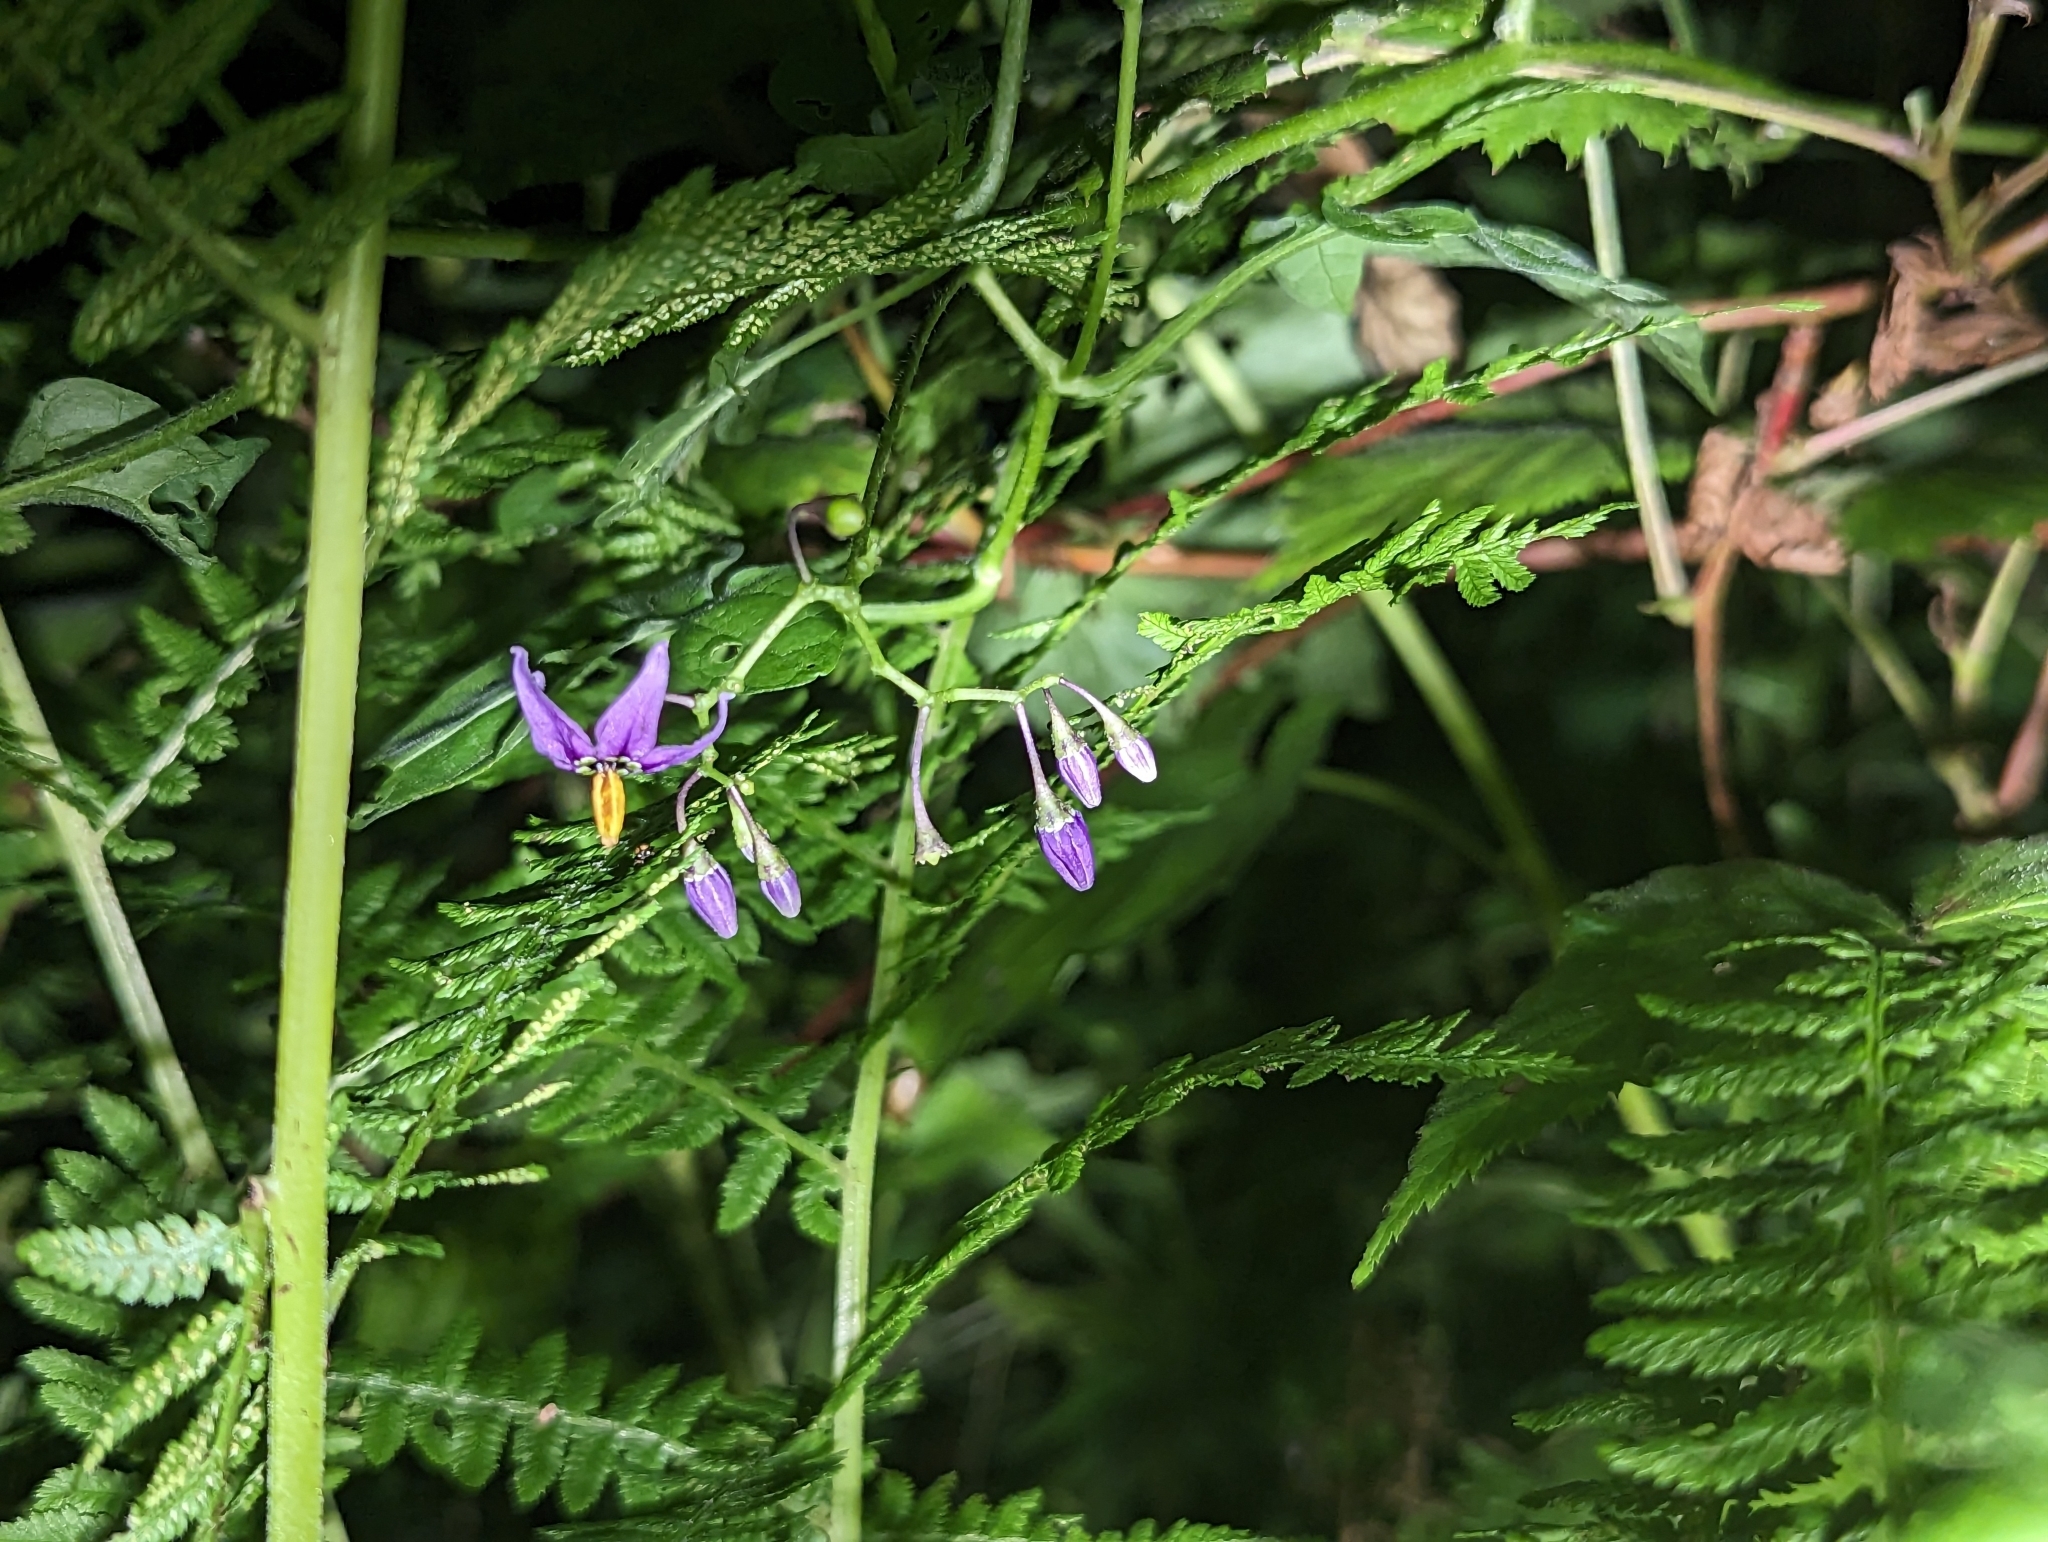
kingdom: Plantae
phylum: Tracheophyta
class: Magnoliopsida
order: Solanales
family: Solanaceae
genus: Solanum
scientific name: Solanum dulcamara
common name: Climbing nightshade
